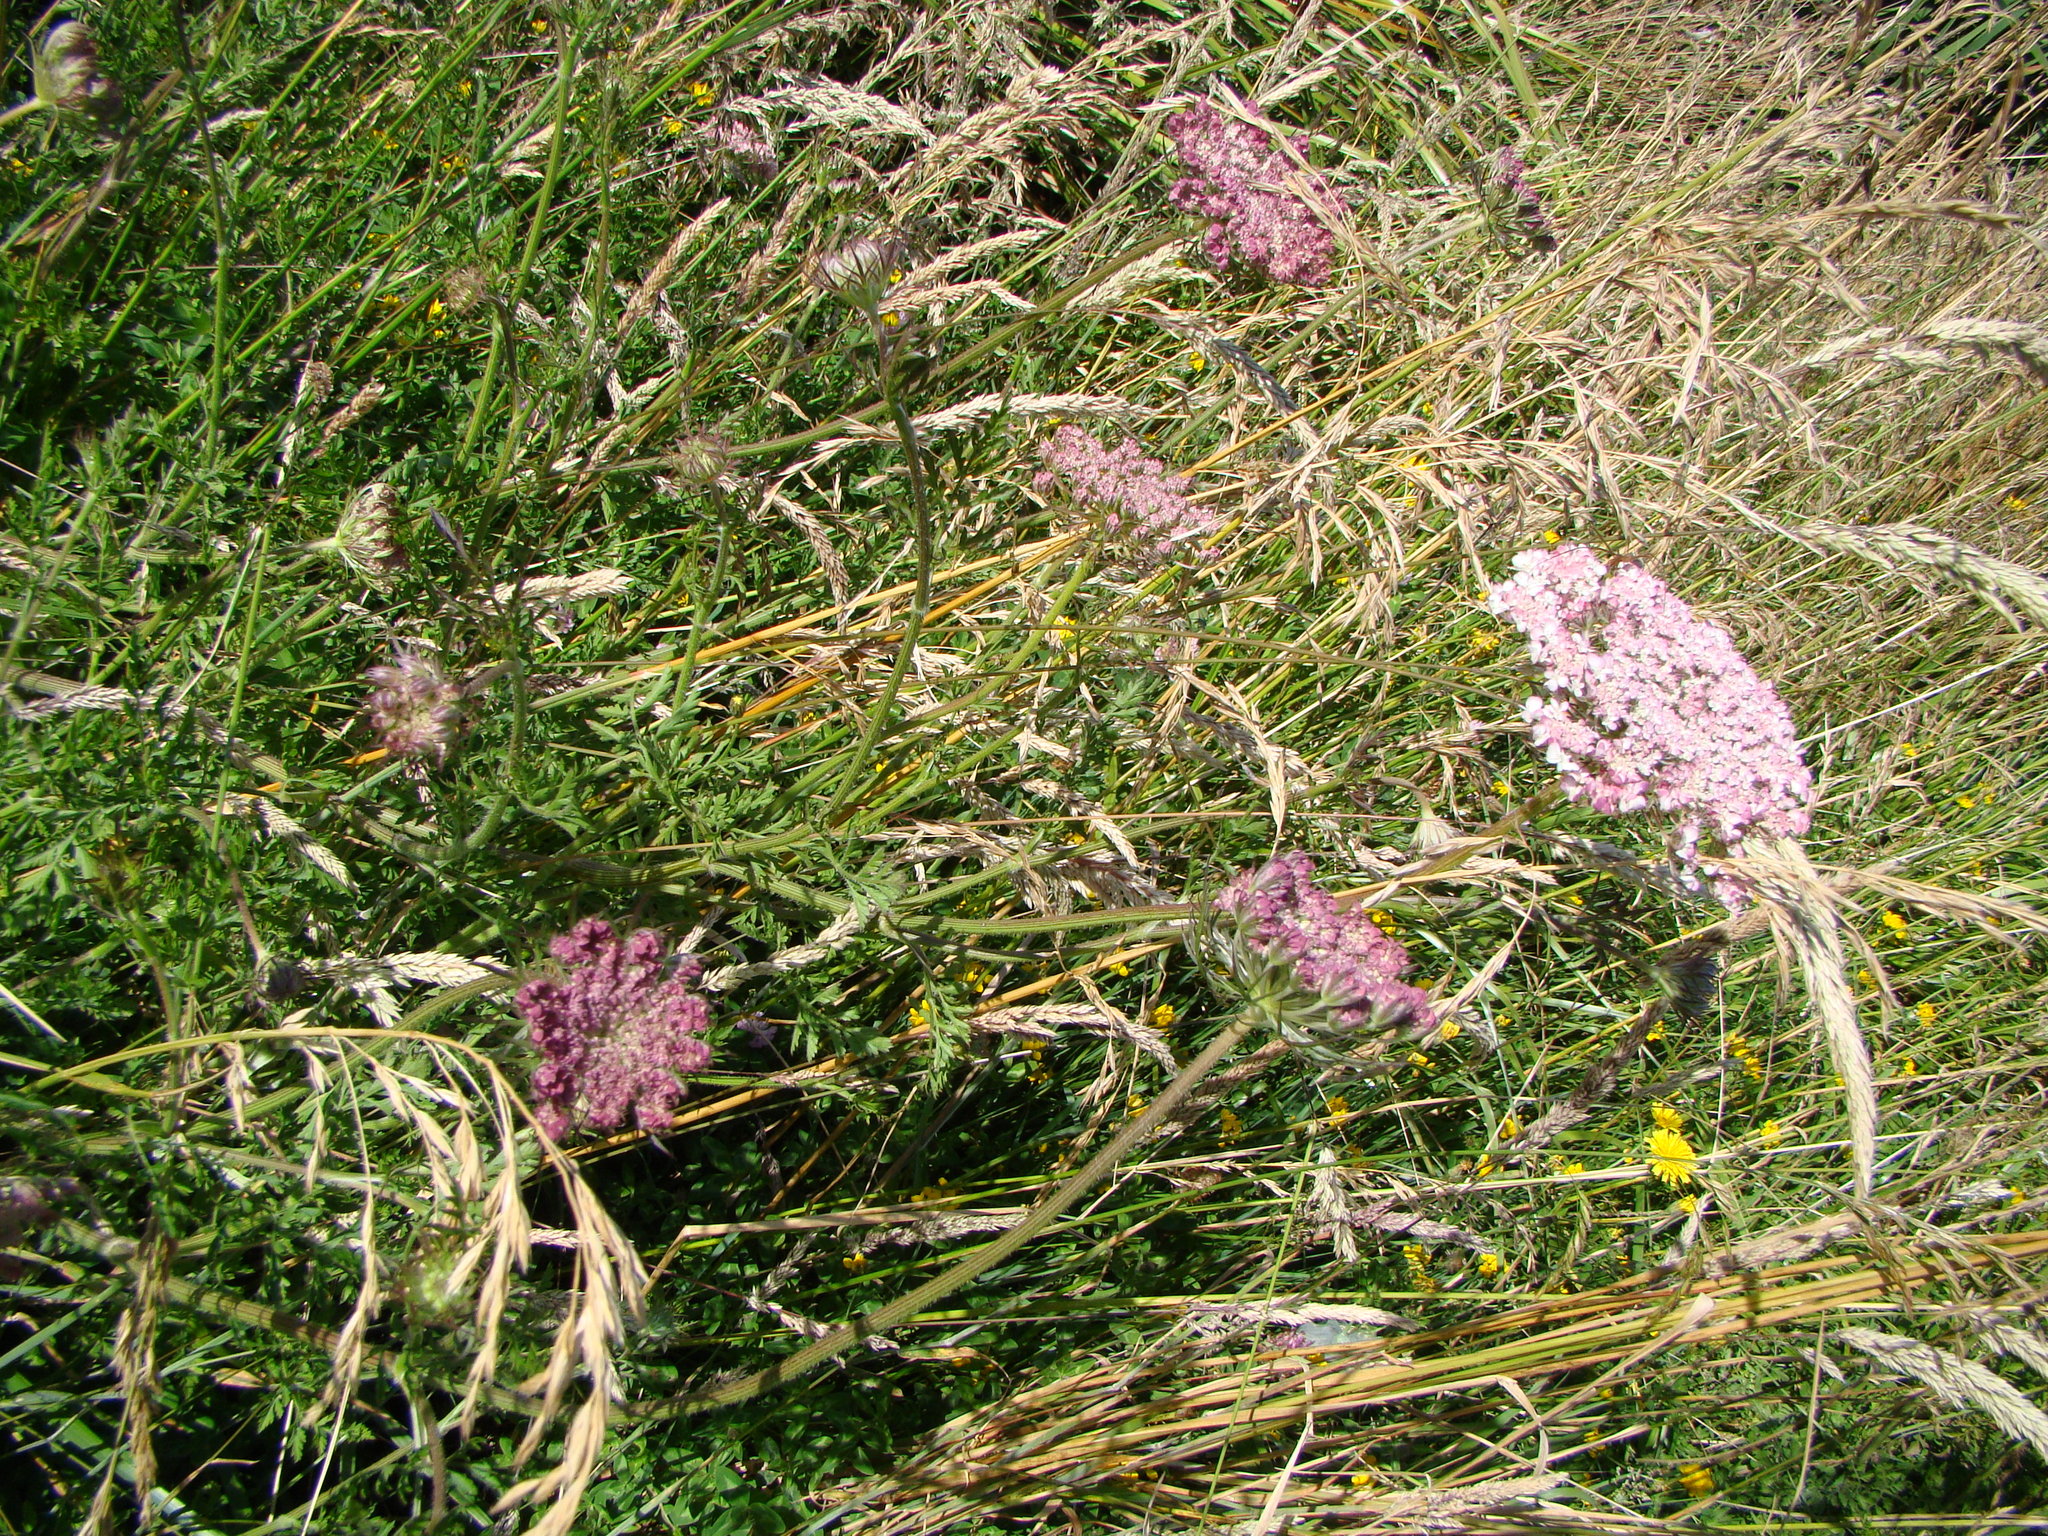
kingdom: Plantae
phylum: Tracheophyta
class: Magnoliopsida
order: Apiales
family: Apiaceae
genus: Daucus
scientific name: Daucus carota
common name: Wild carrot
